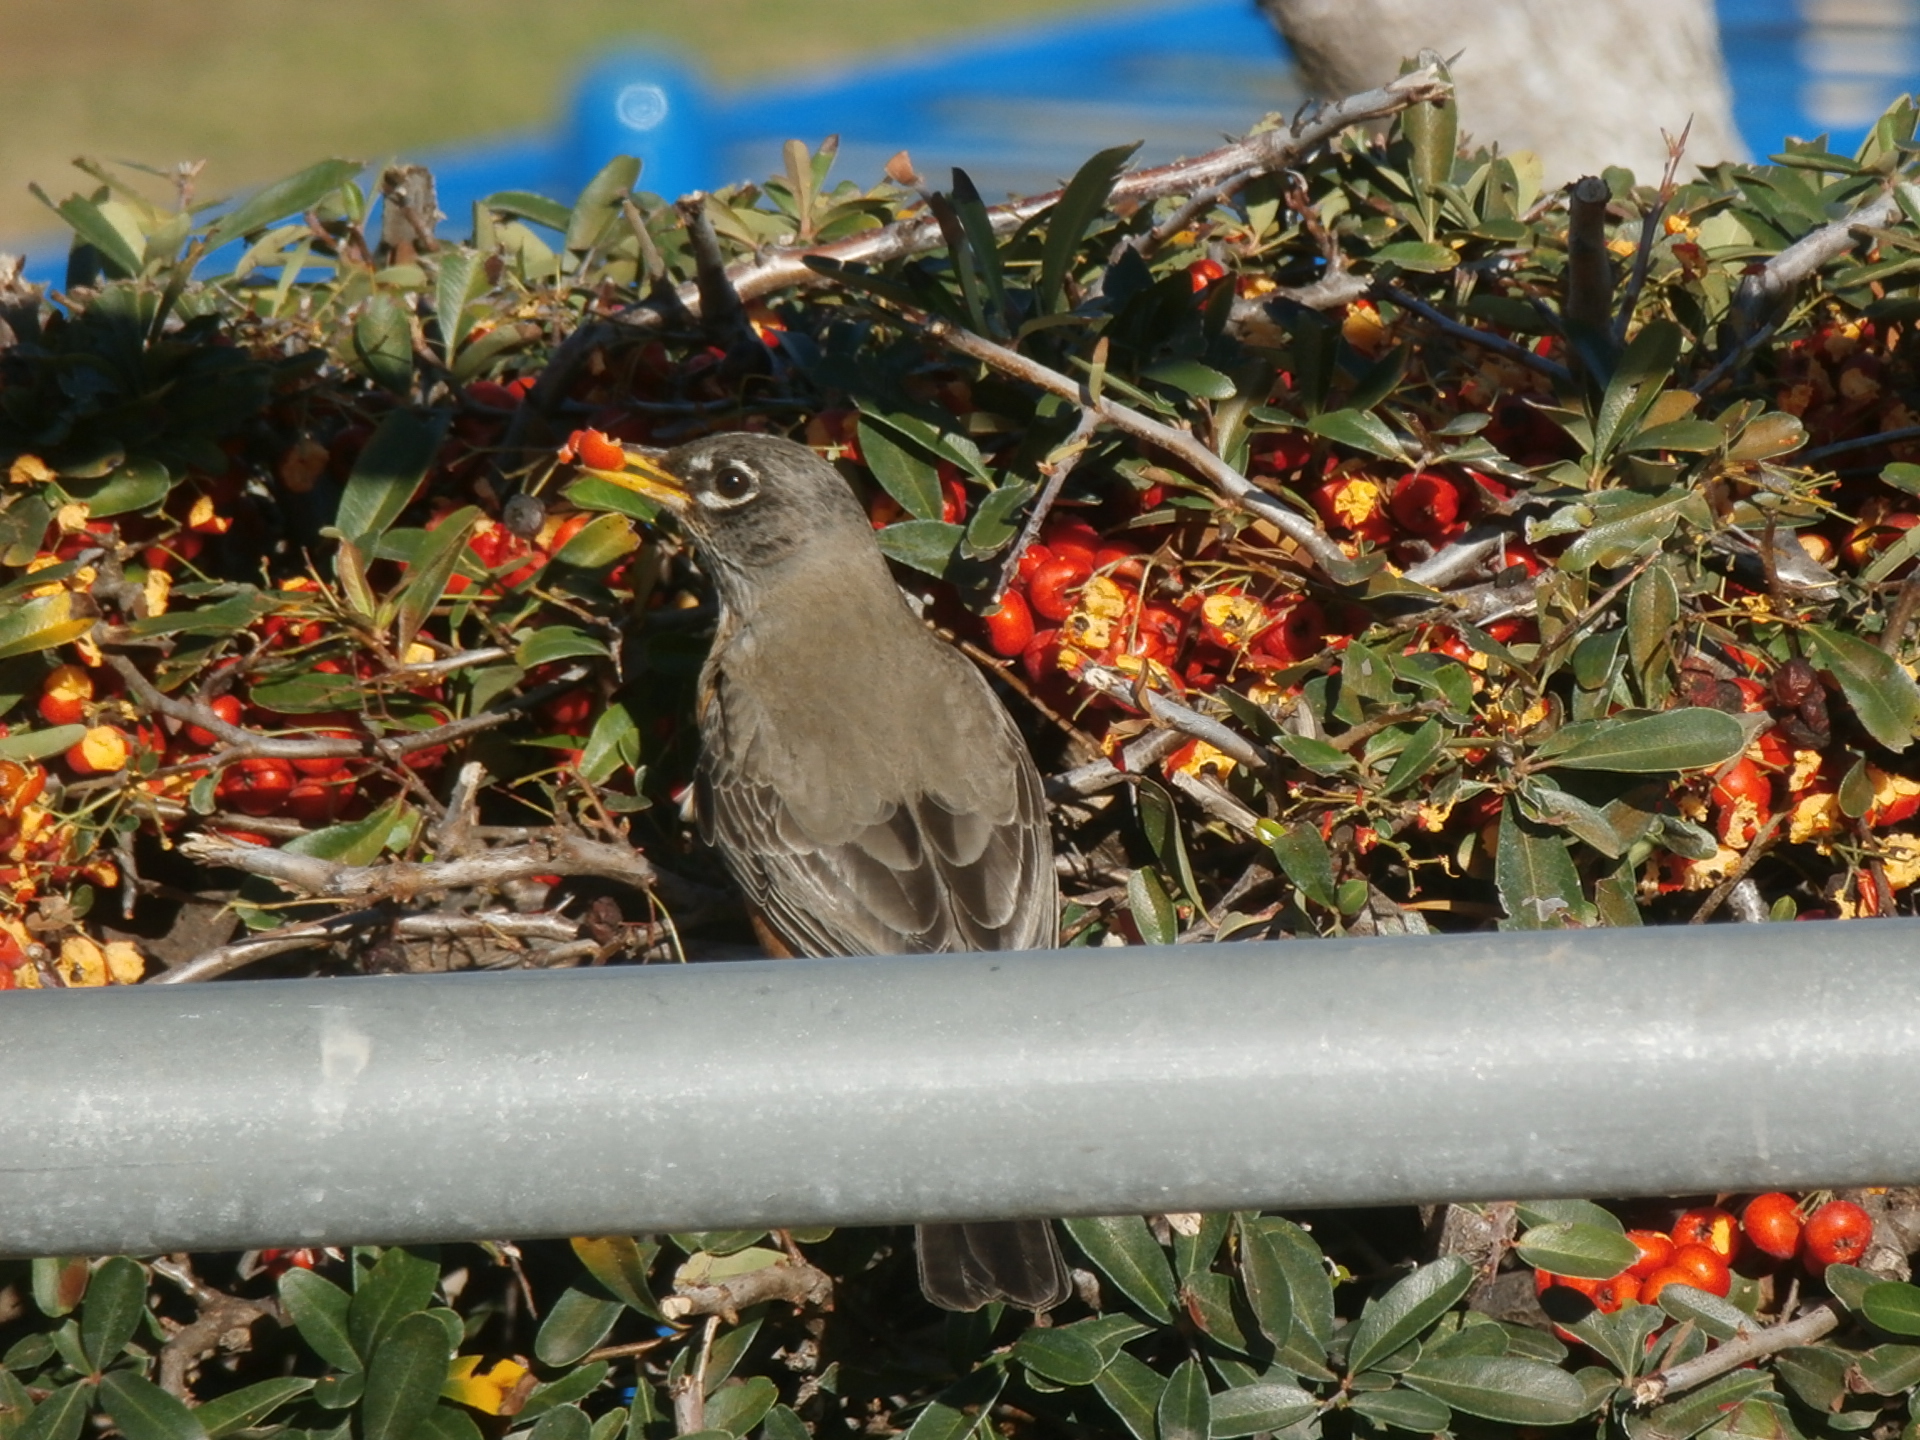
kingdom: Animalia
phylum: Chordata
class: Aves
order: Passeriformes
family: Turdidae
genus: Turdus
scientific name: Turdus migratorius
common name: American robin
